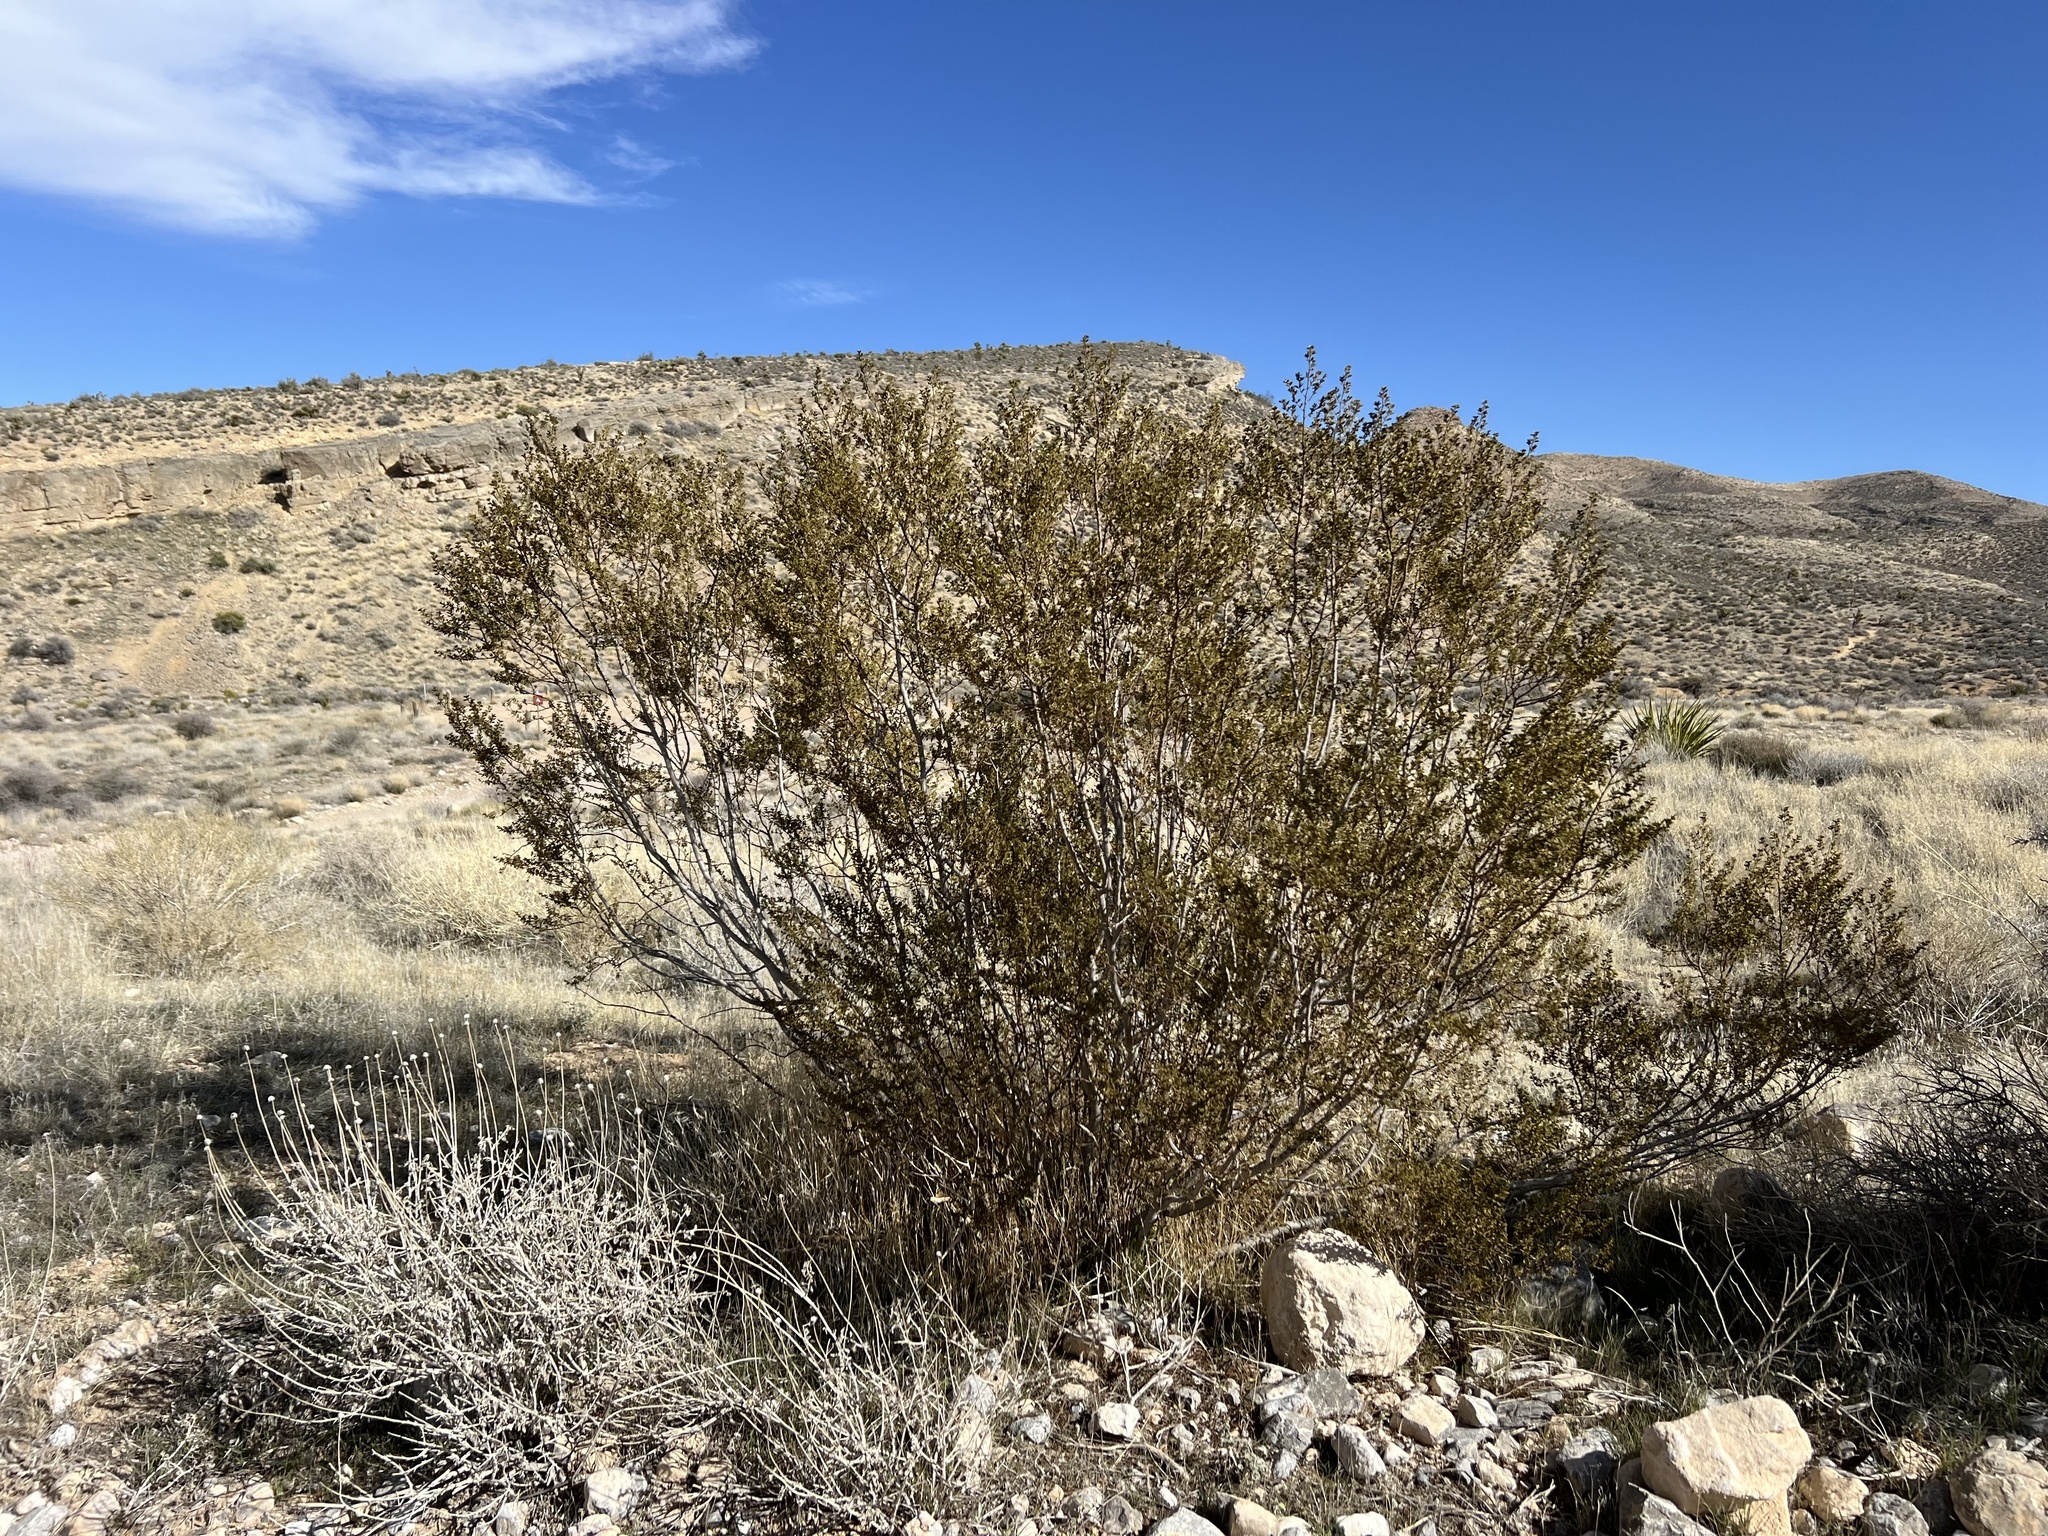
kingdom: Plantae
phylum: Tracheophyta
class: Magnoliopsida
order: Zygophyllales
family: Zygophyllaceae
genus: Larrea
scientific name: Larrea tridentata
